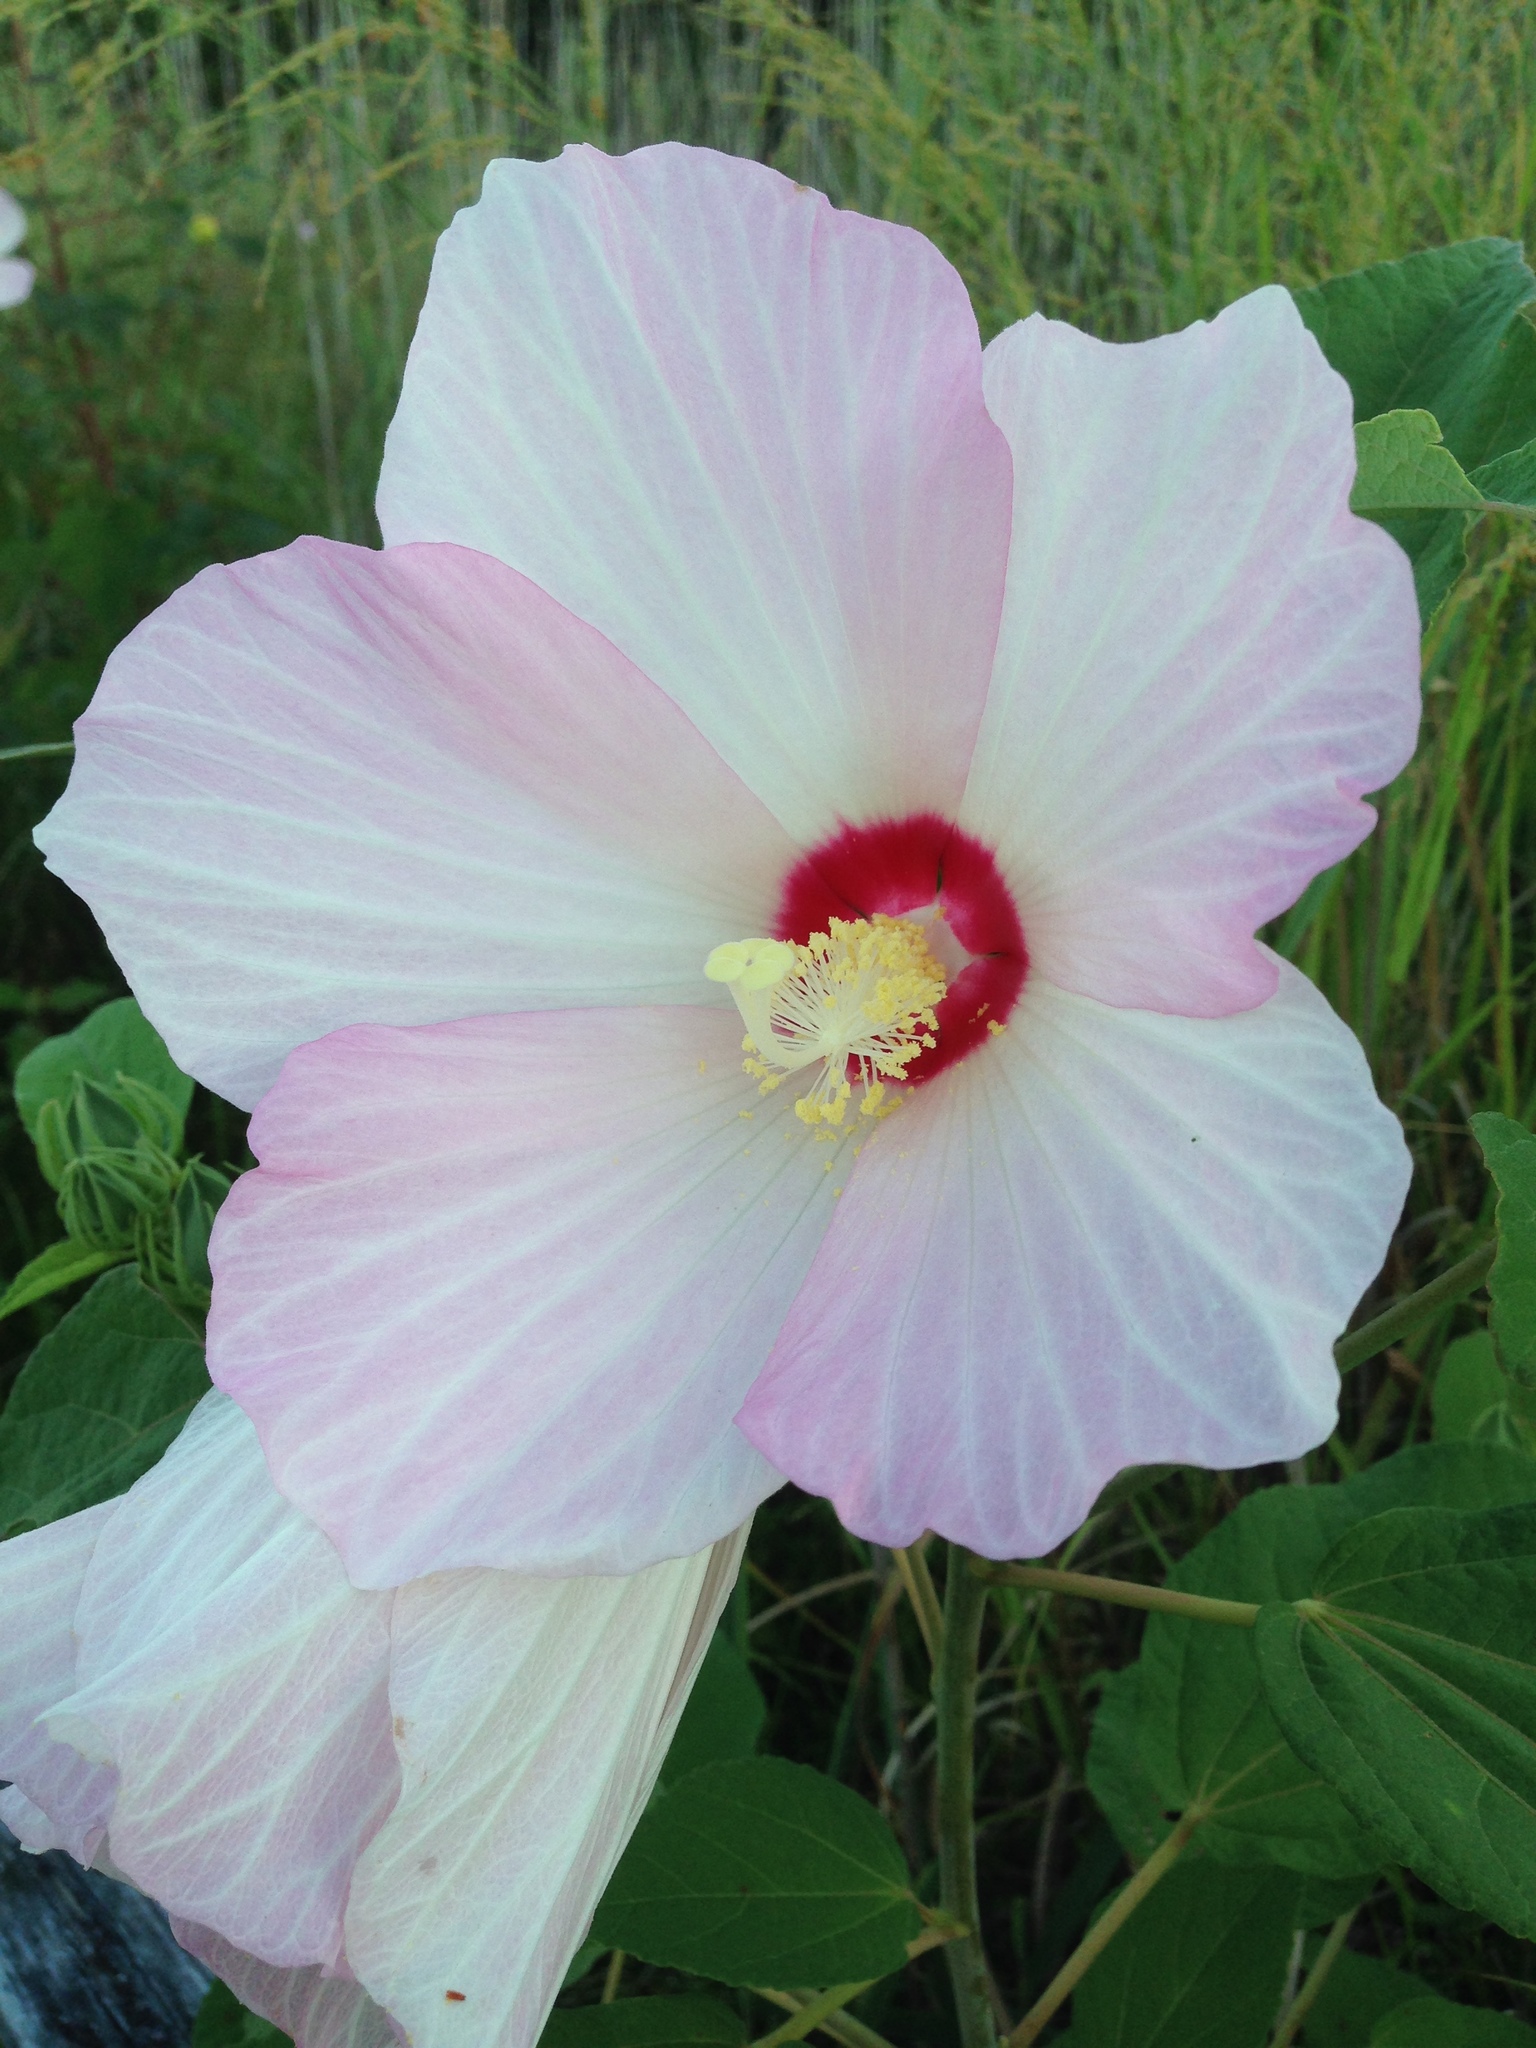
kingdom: Plantae
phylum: Tracheophyta
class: Magnoliopsida
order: Malvales
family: Malvaceae
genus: Hibiscus
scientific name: Hibiscus moscheutos
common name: Common rose-mallow
